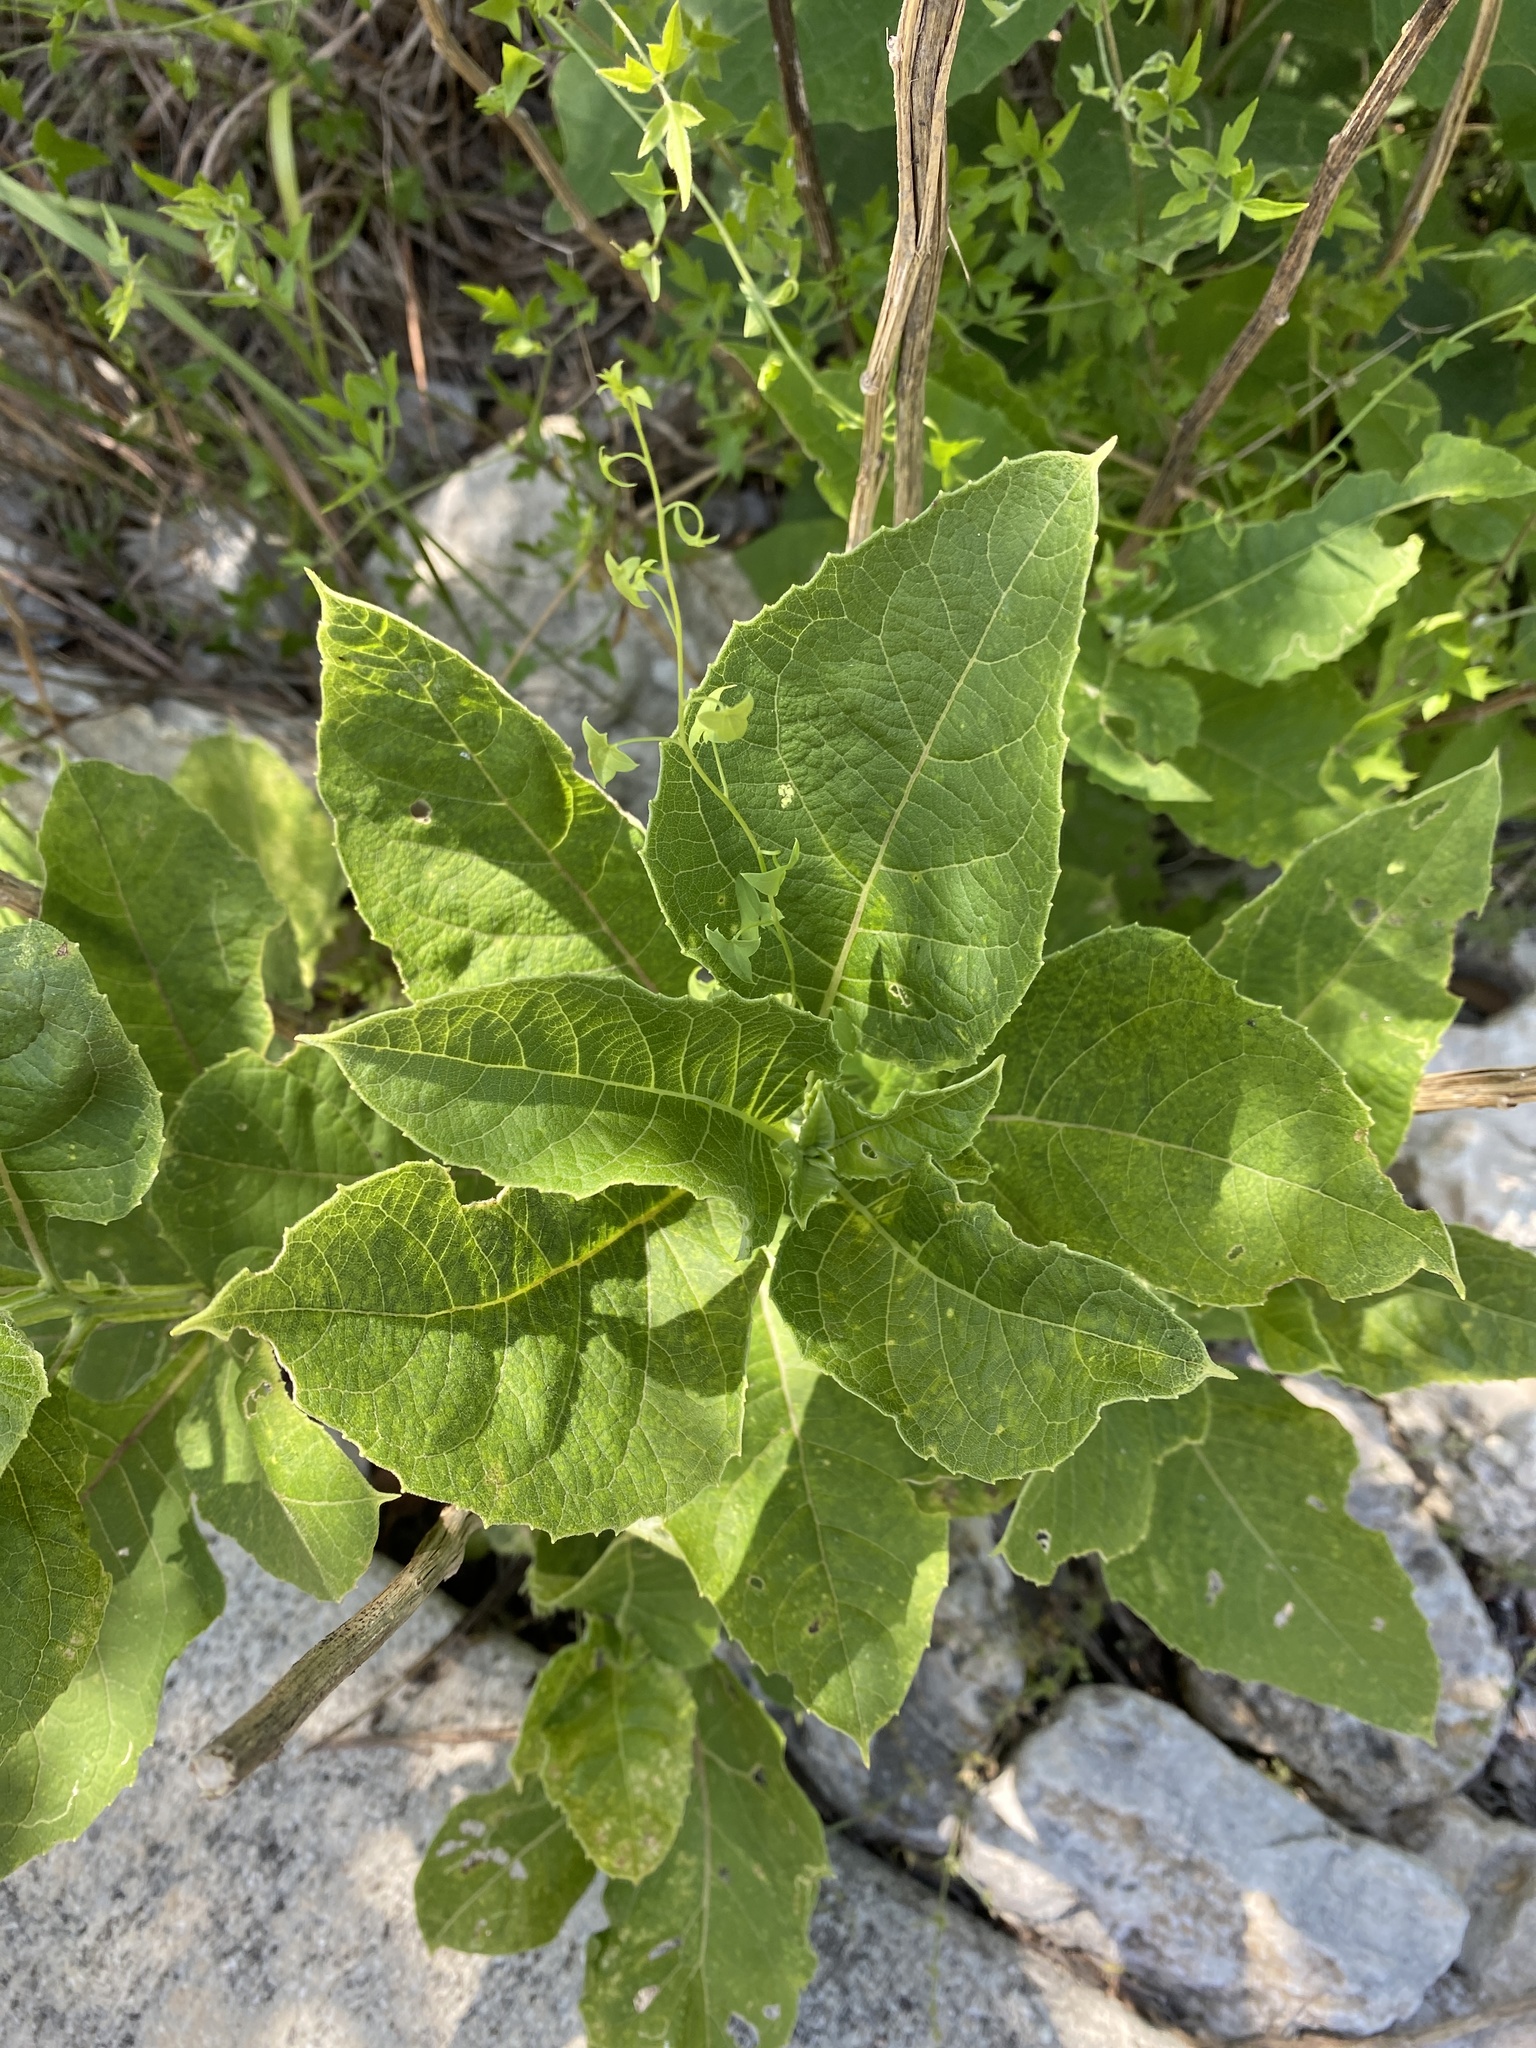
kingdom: Plantae
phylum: Tracheophyta
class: Magnoliopsida
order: Asterales
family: Asteraceae
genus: Verbesina
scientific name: Verbesina virginica
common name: Frostweed
